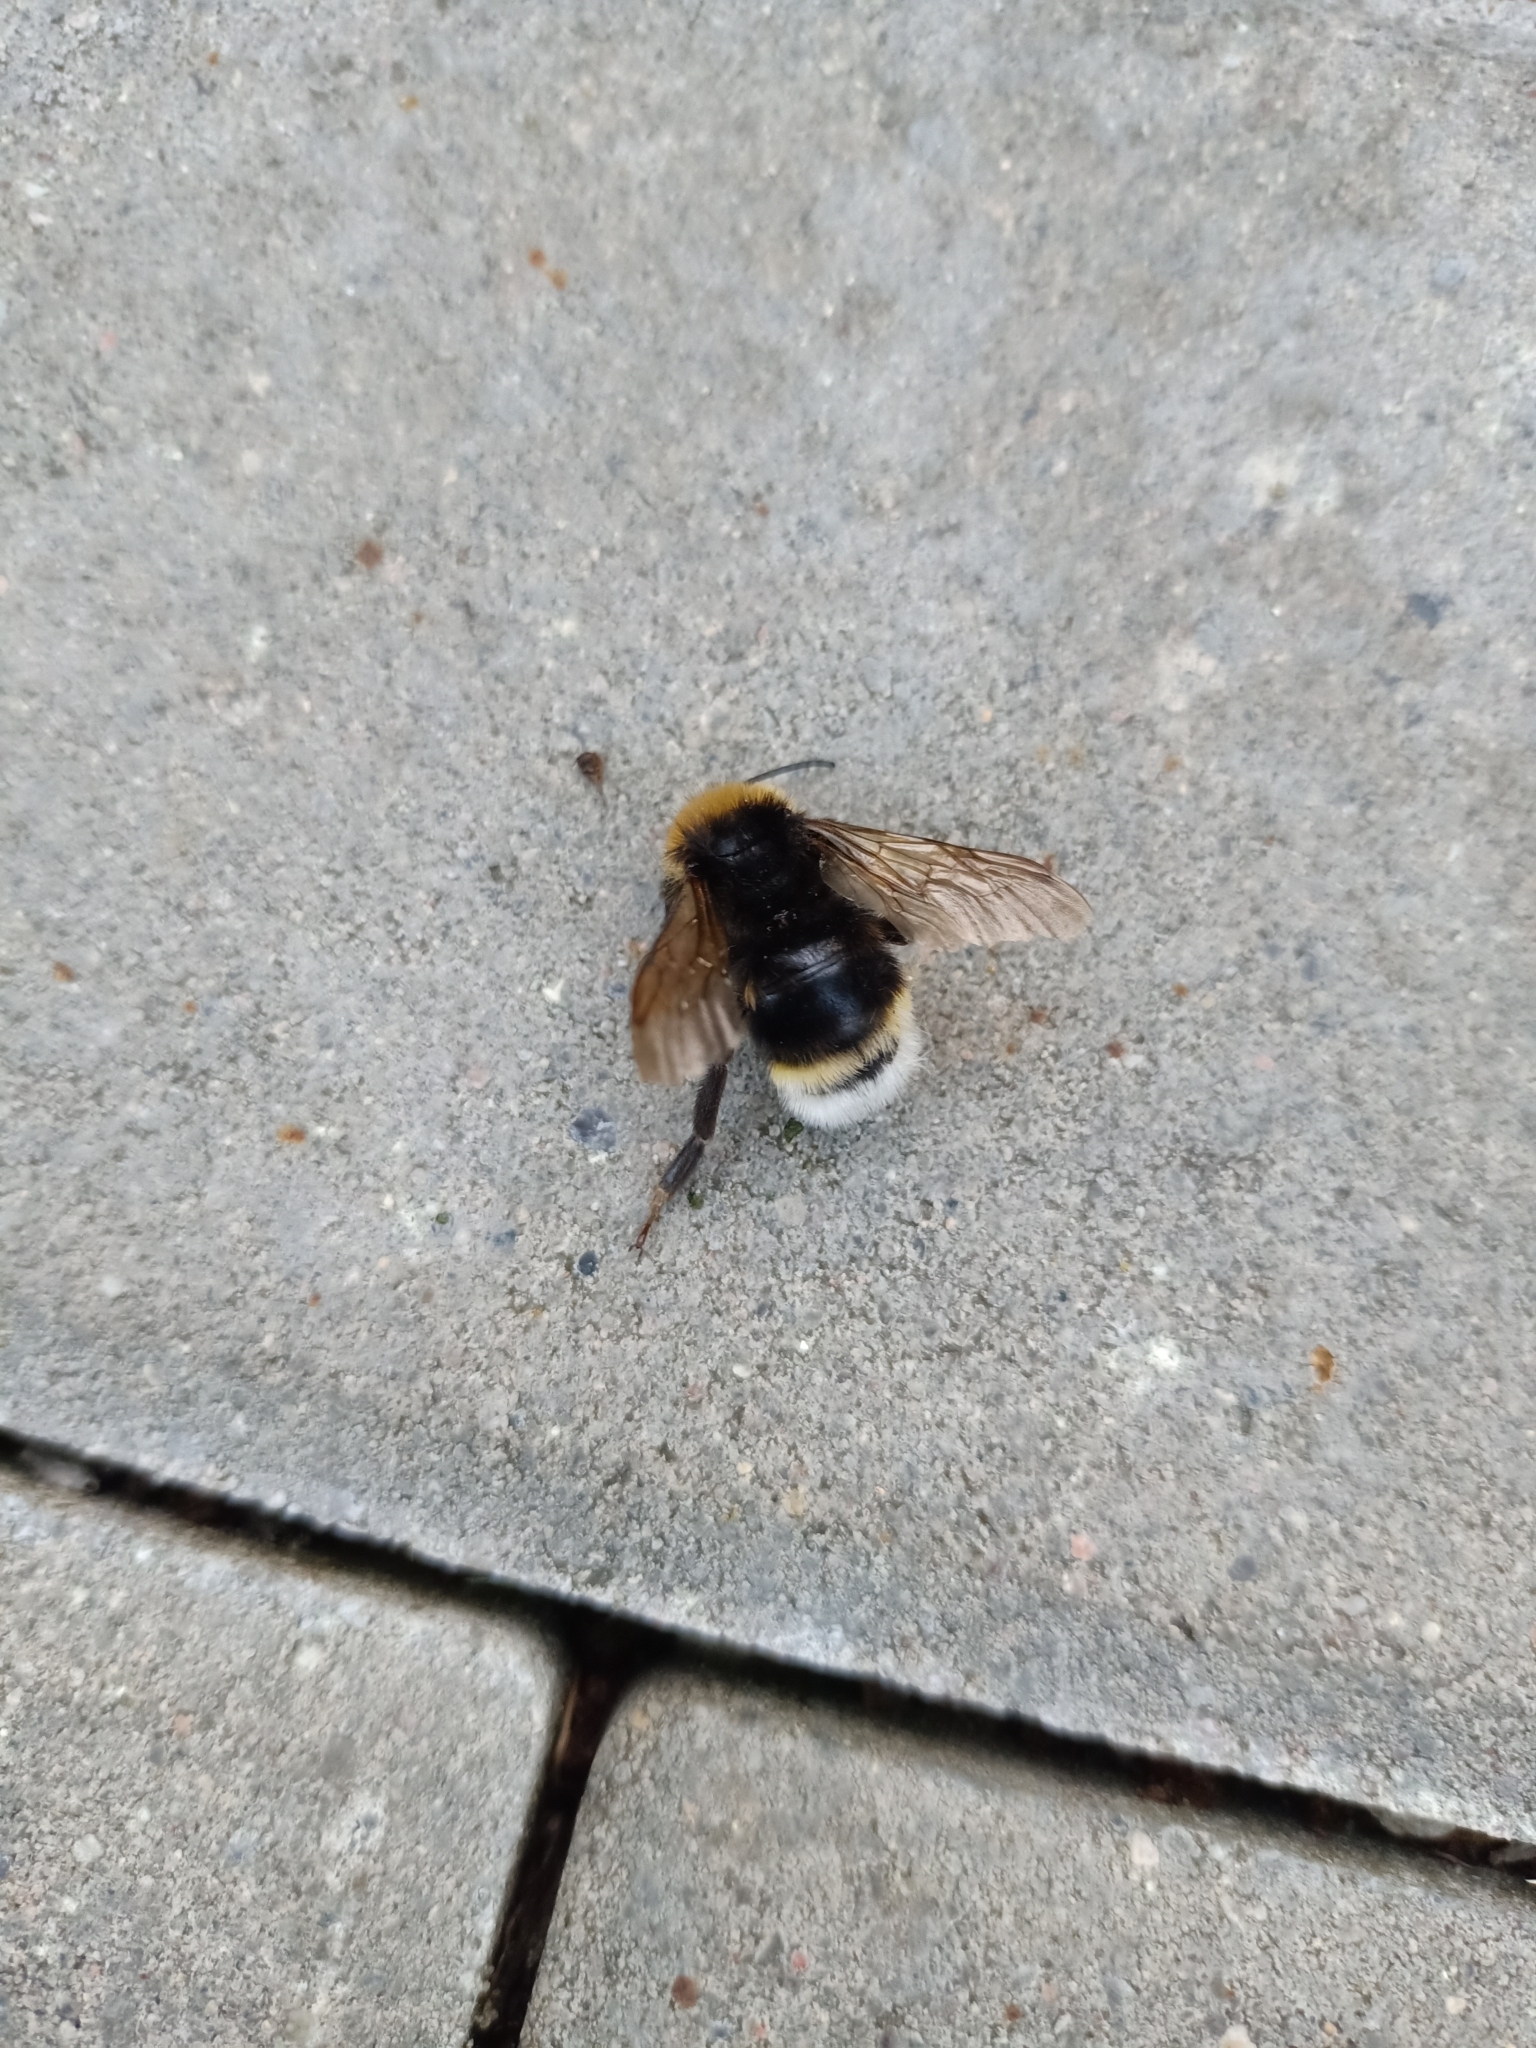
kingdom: Animalia
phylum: Arthropoda
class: Insecta
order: Hymenoptera
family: Apidae
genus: Bombus
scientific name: Bombus vestalis
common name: Vestal cuckoo bee
